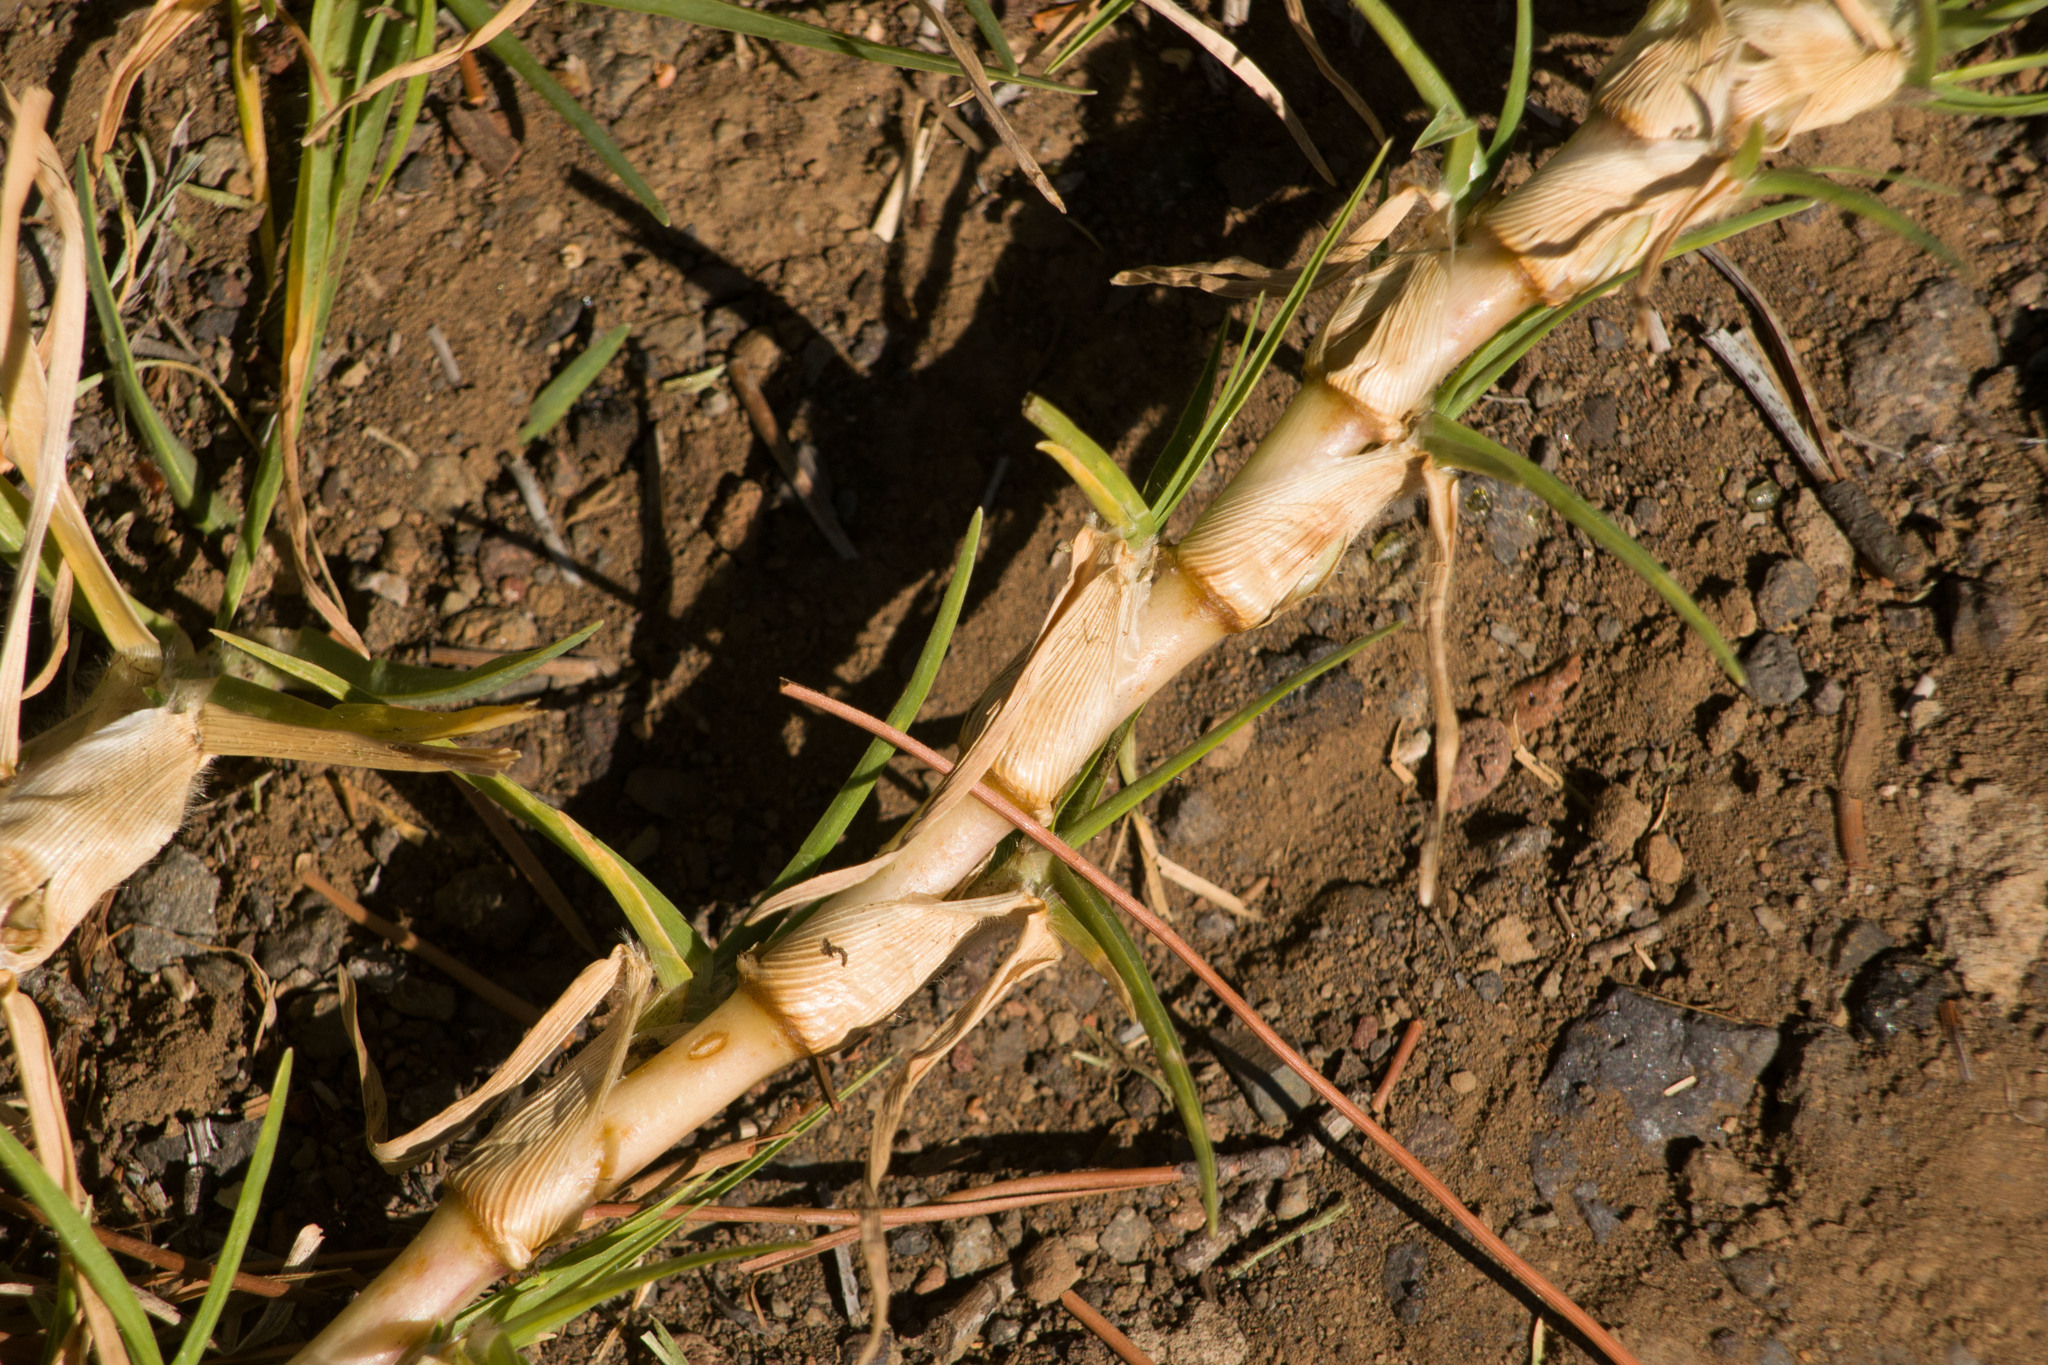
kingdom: Plantae
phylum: Tracheophyta
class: Liliopsida
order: Poales
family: Poaceae
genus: Cenchrus
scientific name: Cenchrus clandestinus
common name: Kikuyugrass
